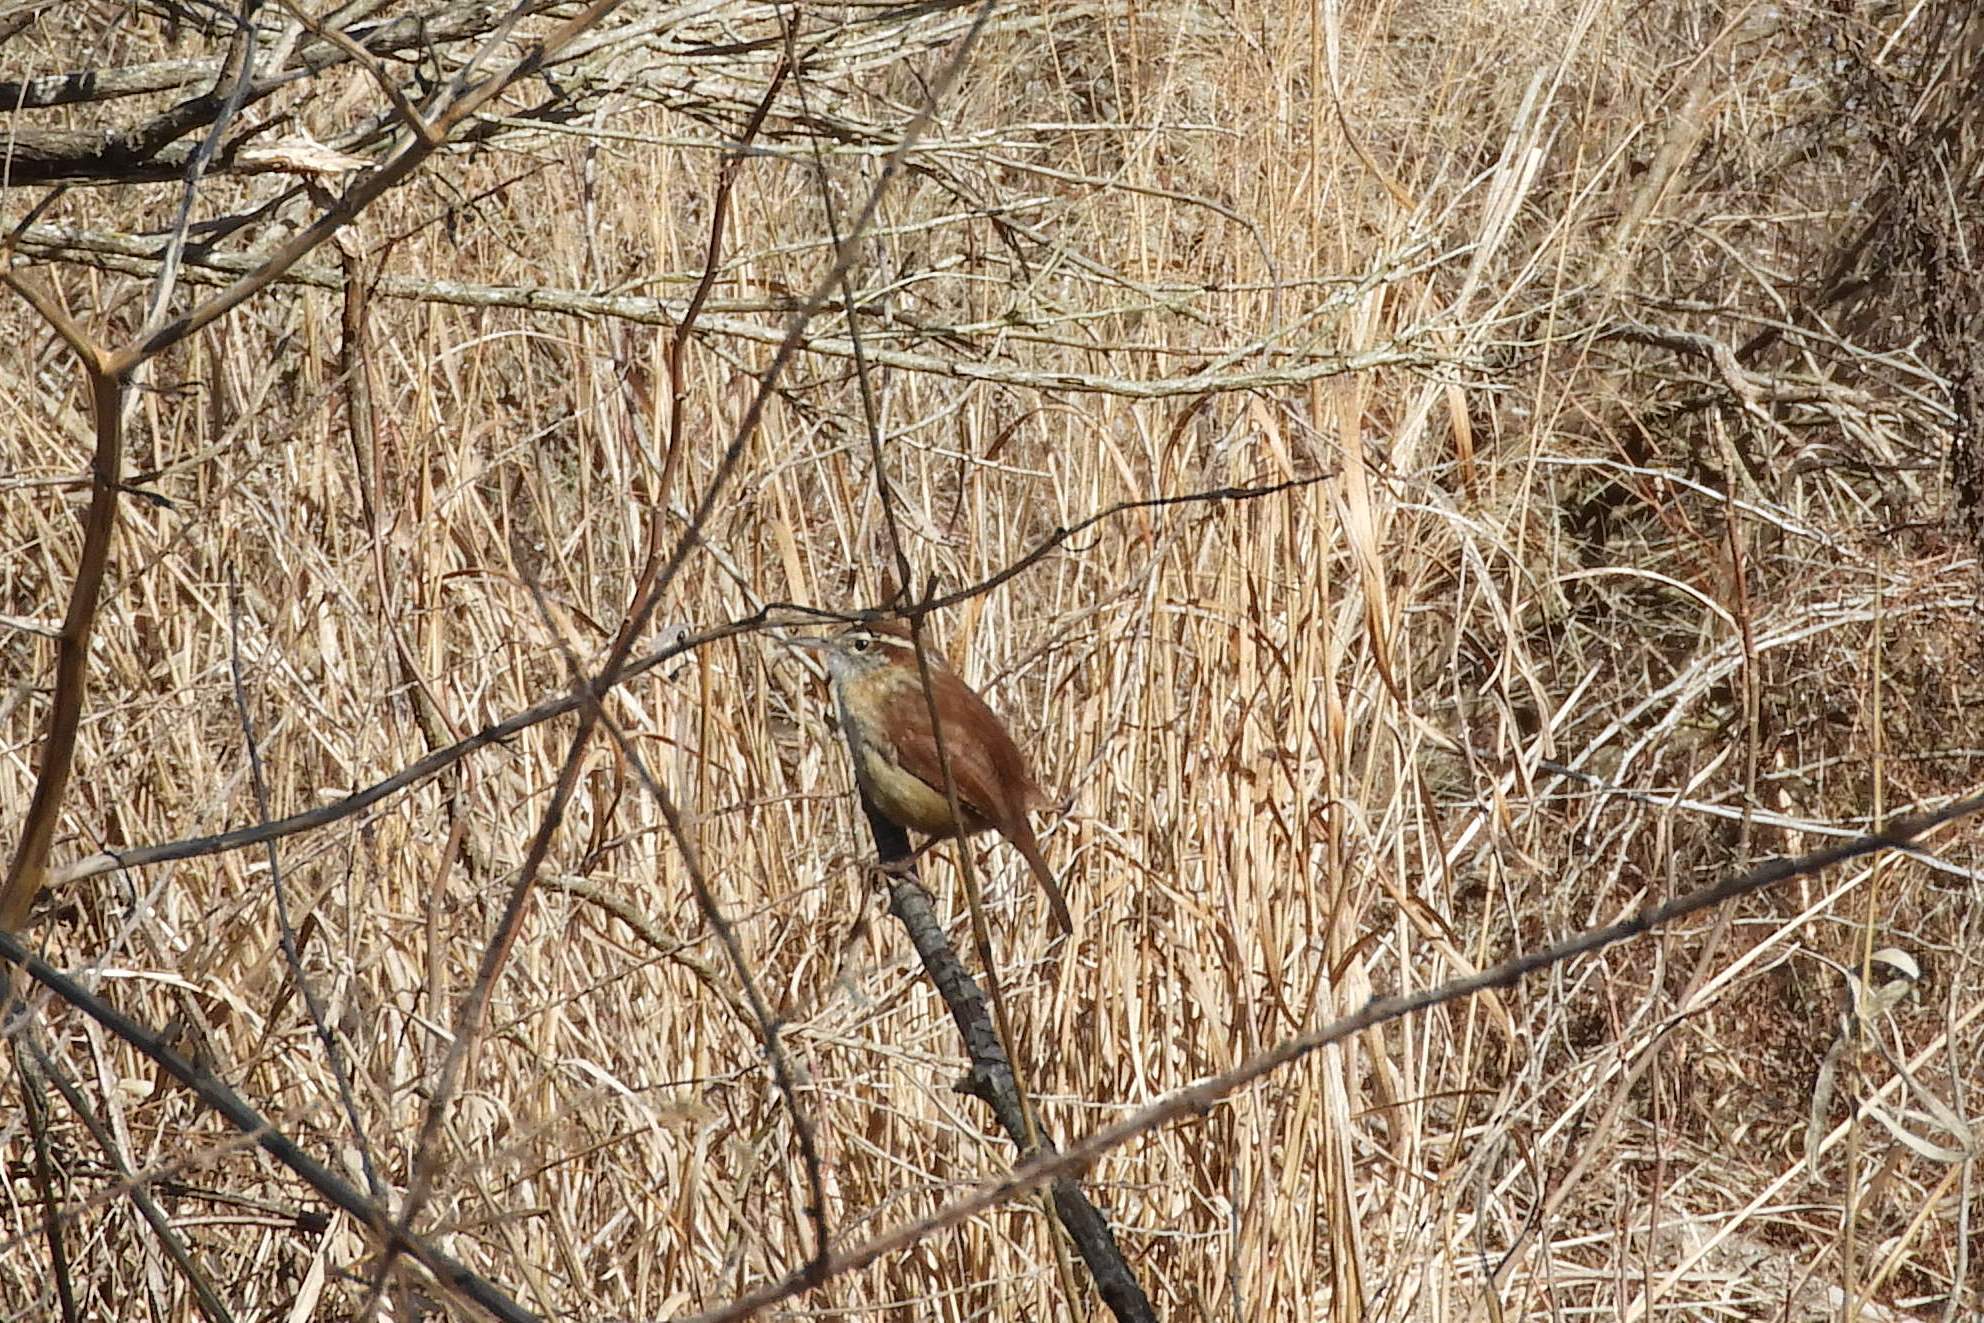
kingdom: Animalia
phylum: Chordata
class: Aves
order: Passeriformes
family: Troglodytidae
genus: Thryothorus
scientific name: Thryothorus ludovicianus
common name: Carolina wren
